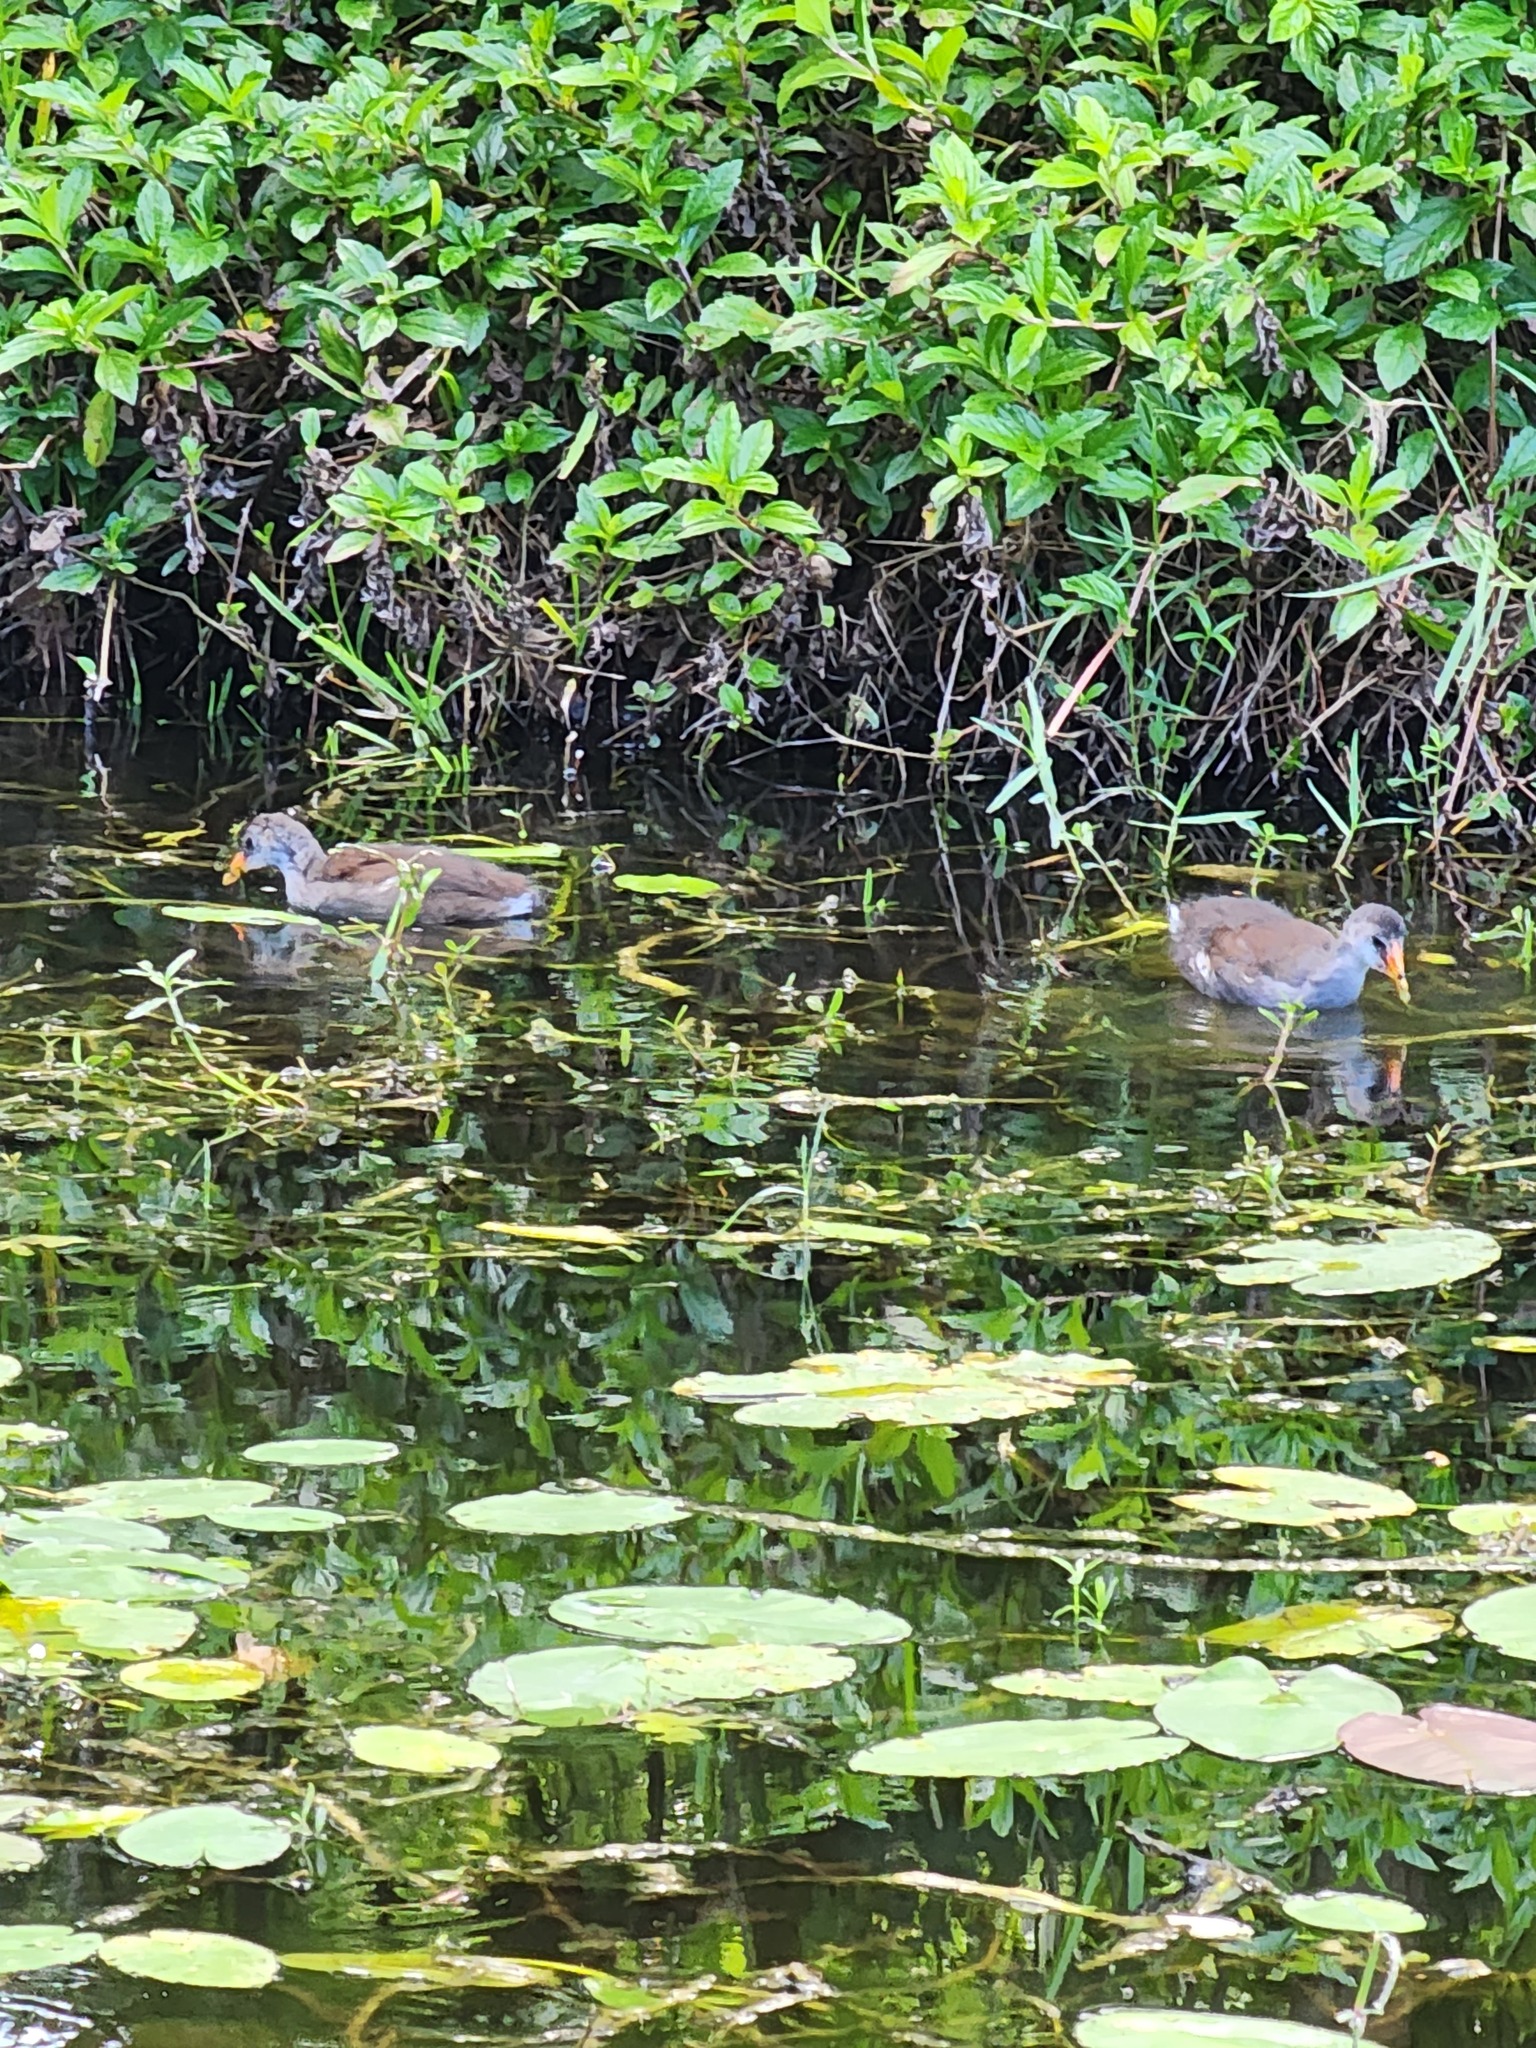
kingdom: Animalia
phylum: Chordata
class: Aves
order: Gruiformes
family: Rallidae
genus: Gallinula
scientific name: Gallinula chloropus
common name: Common moorhen
